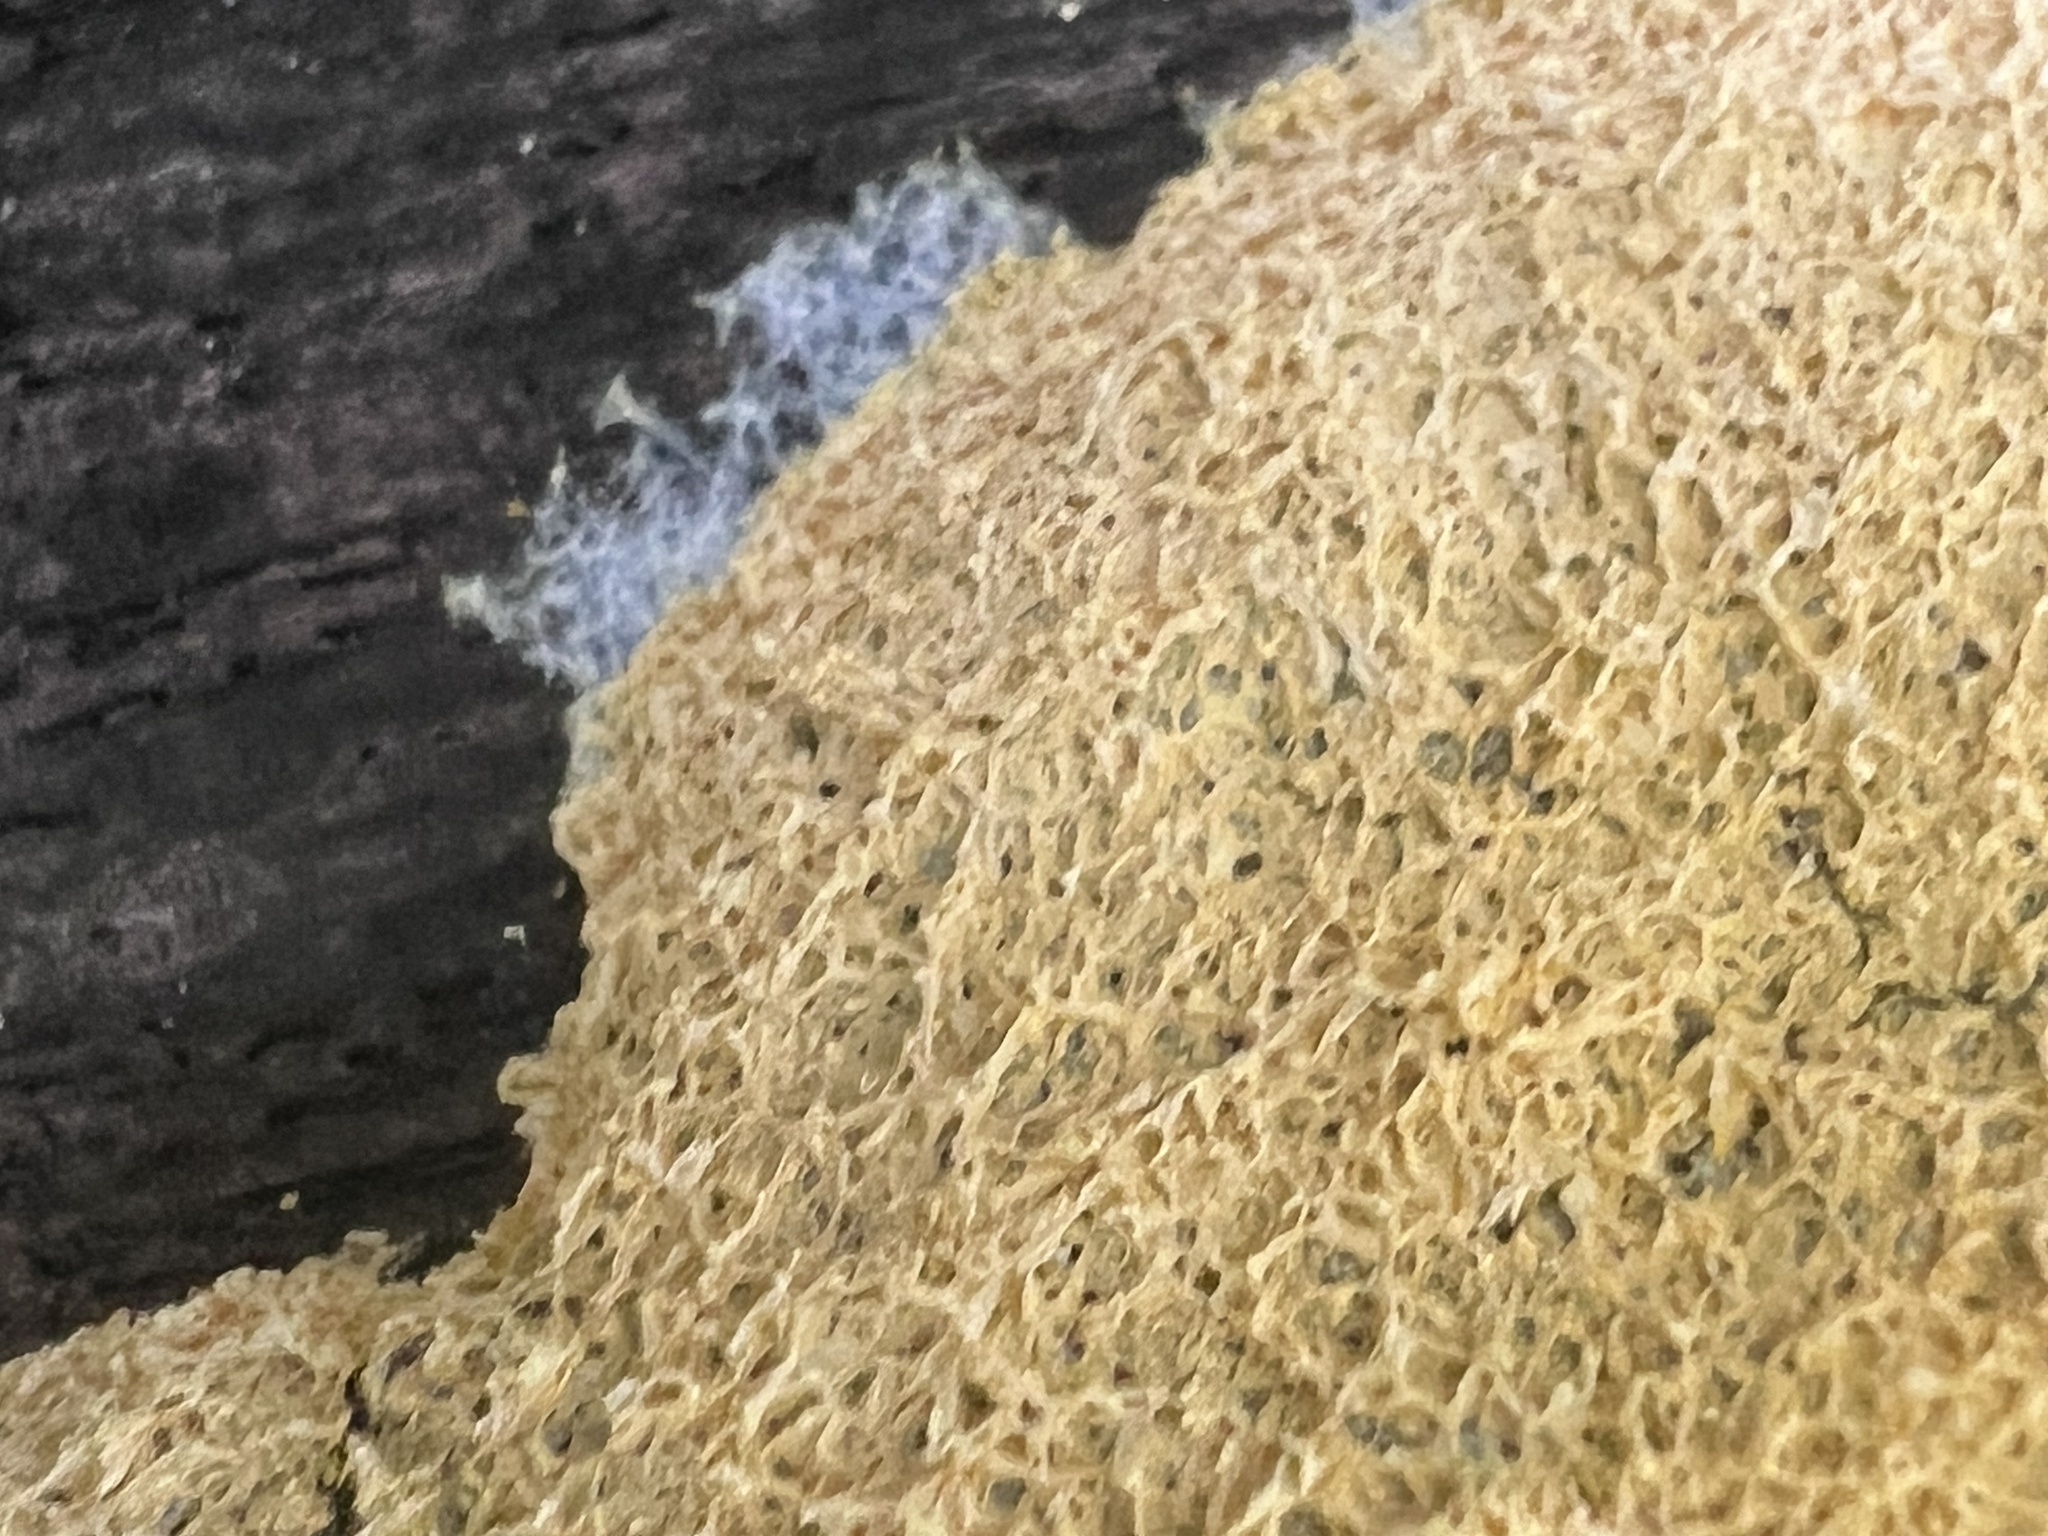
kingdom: Protozoa
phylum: Mycetozoa
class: Myxomycetes
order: Physarales
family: Physaraceae
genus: Fuligo
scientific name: Fuligo septica
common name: Dog vomit slime mold
